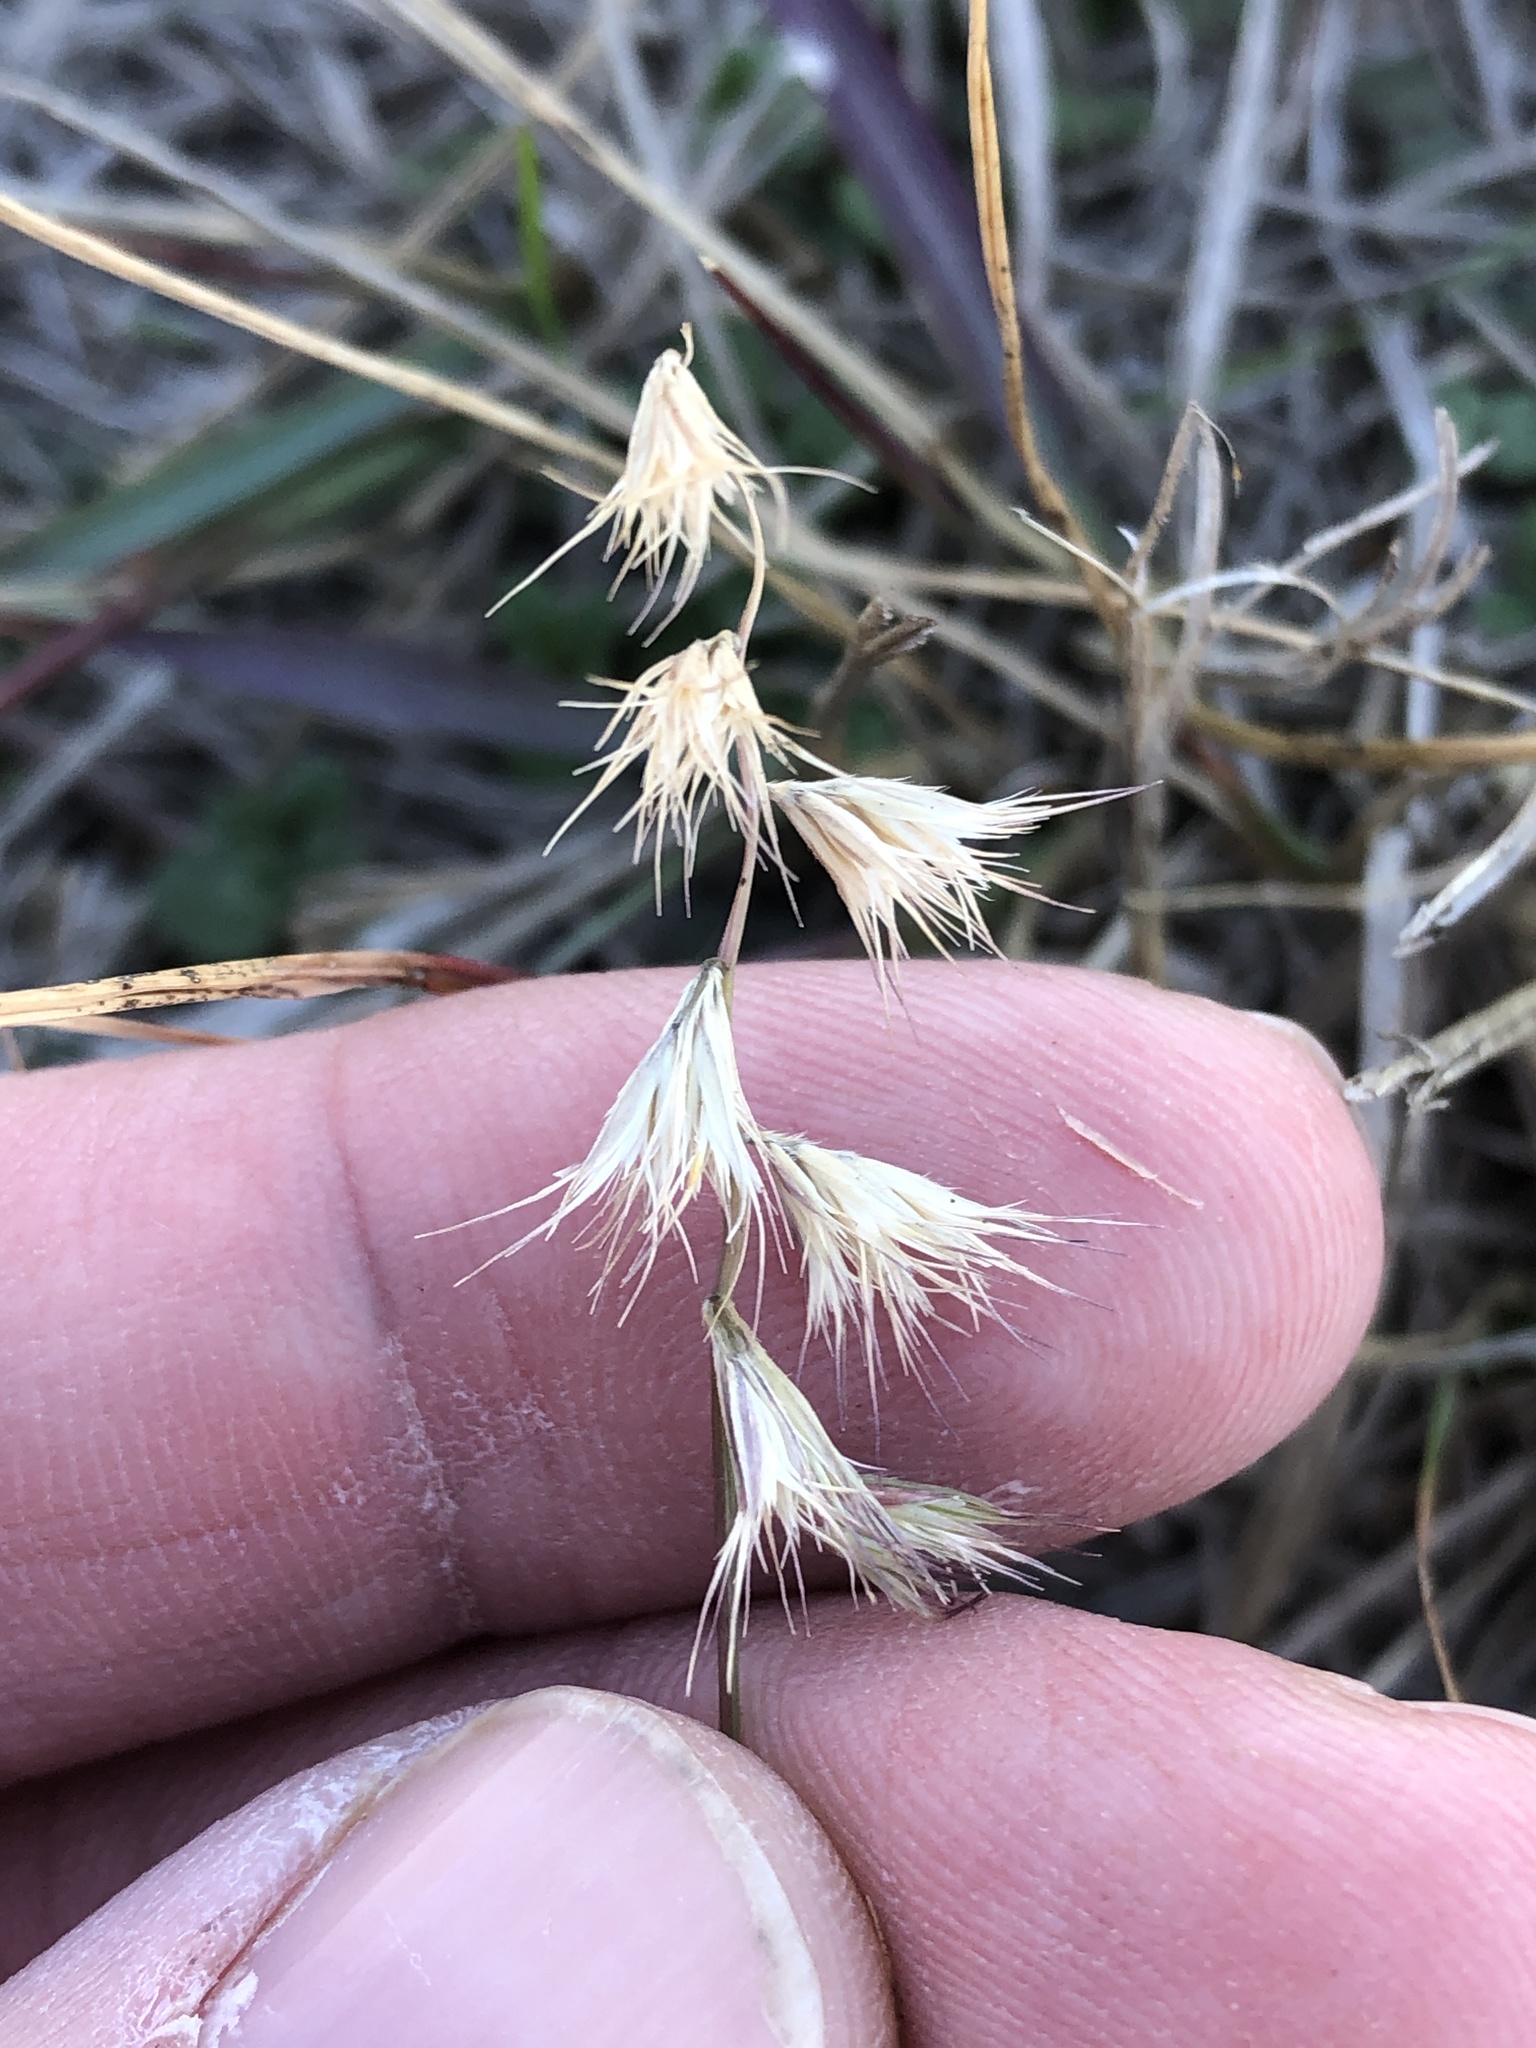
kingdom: Plantae
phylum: Tracheophyta
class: Liliopsida
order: Poales
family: Poaceae
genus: Bouteloua
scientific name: Bouteloua rigidiseta
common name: Texas grama
